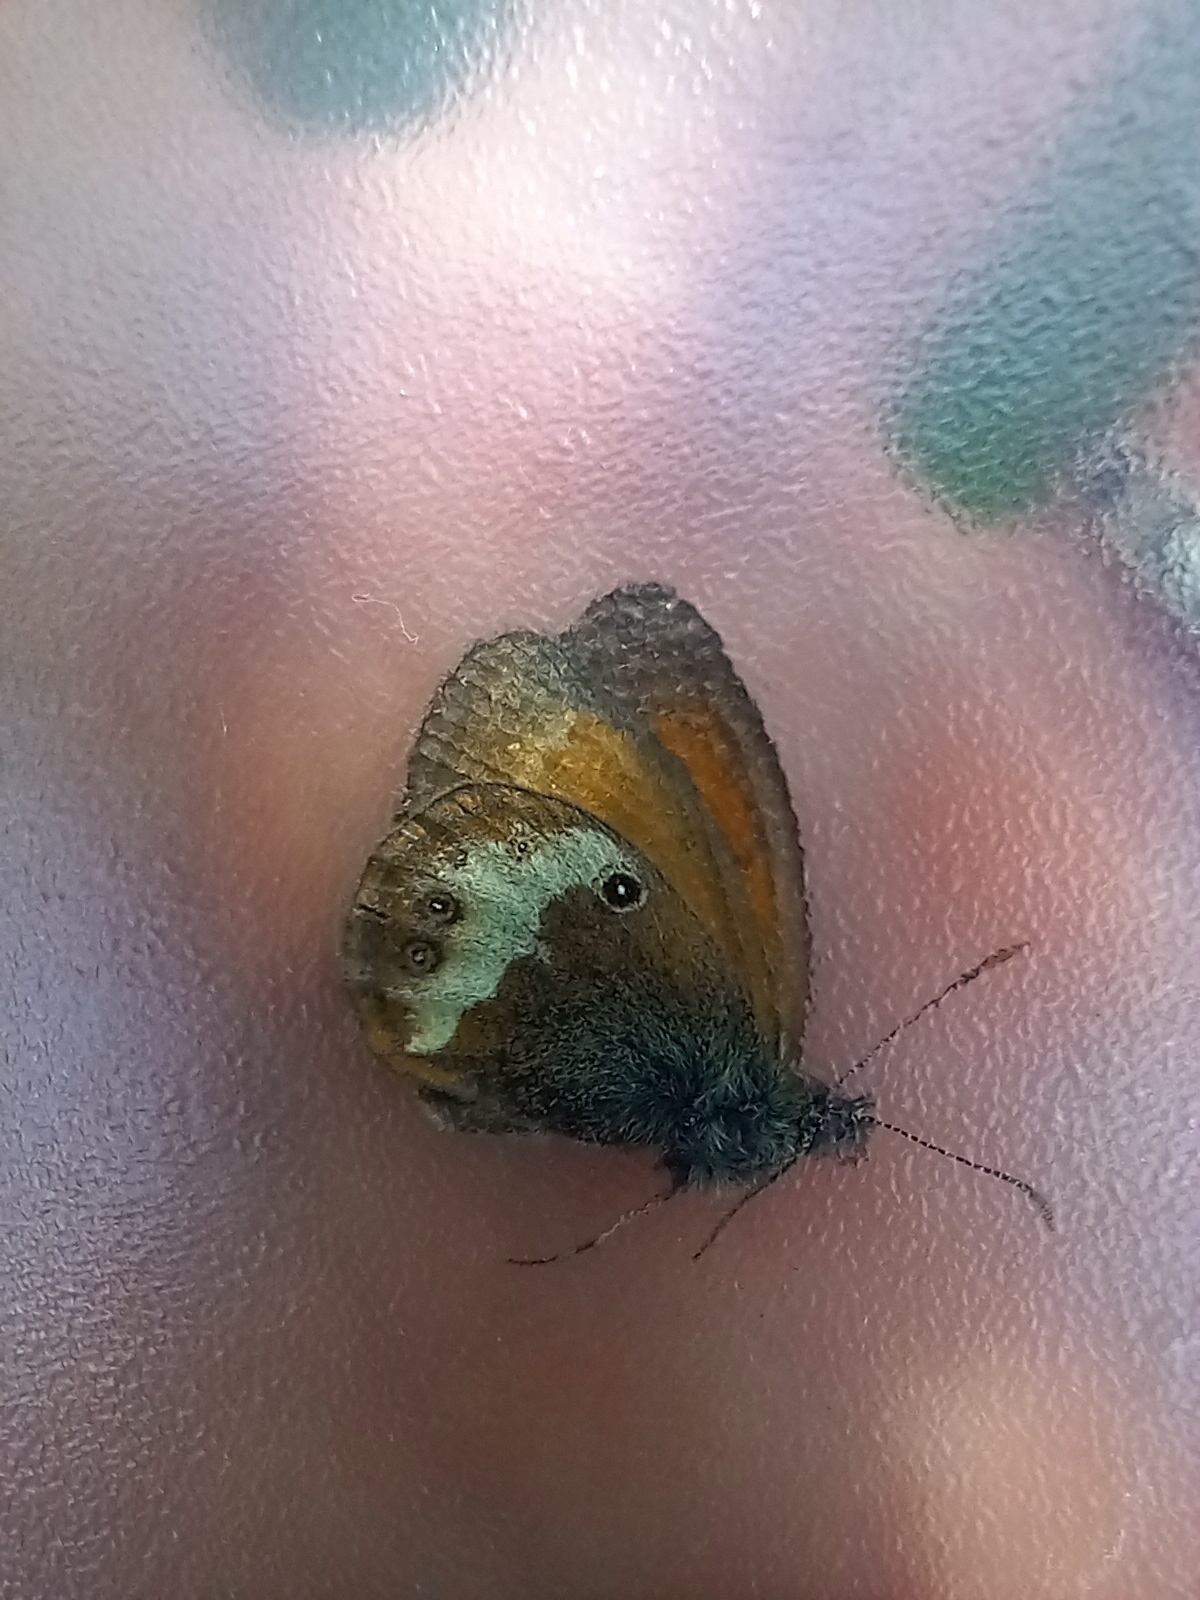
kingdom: Animalia
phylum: Arthropoda
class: Insecta
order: Lepidoptera
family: Nymphalidae
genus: Coenonympha
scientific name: Coenonympha arcania
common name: Pearly heath
